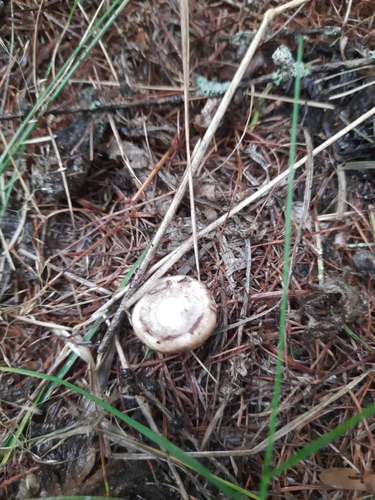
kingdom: Fungi
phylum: Basidiomycota
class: Agaricomycetes
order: Boletales
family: Suillaceae
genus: Suillus
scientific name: Suillus viscidus
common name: Sticky bolete
